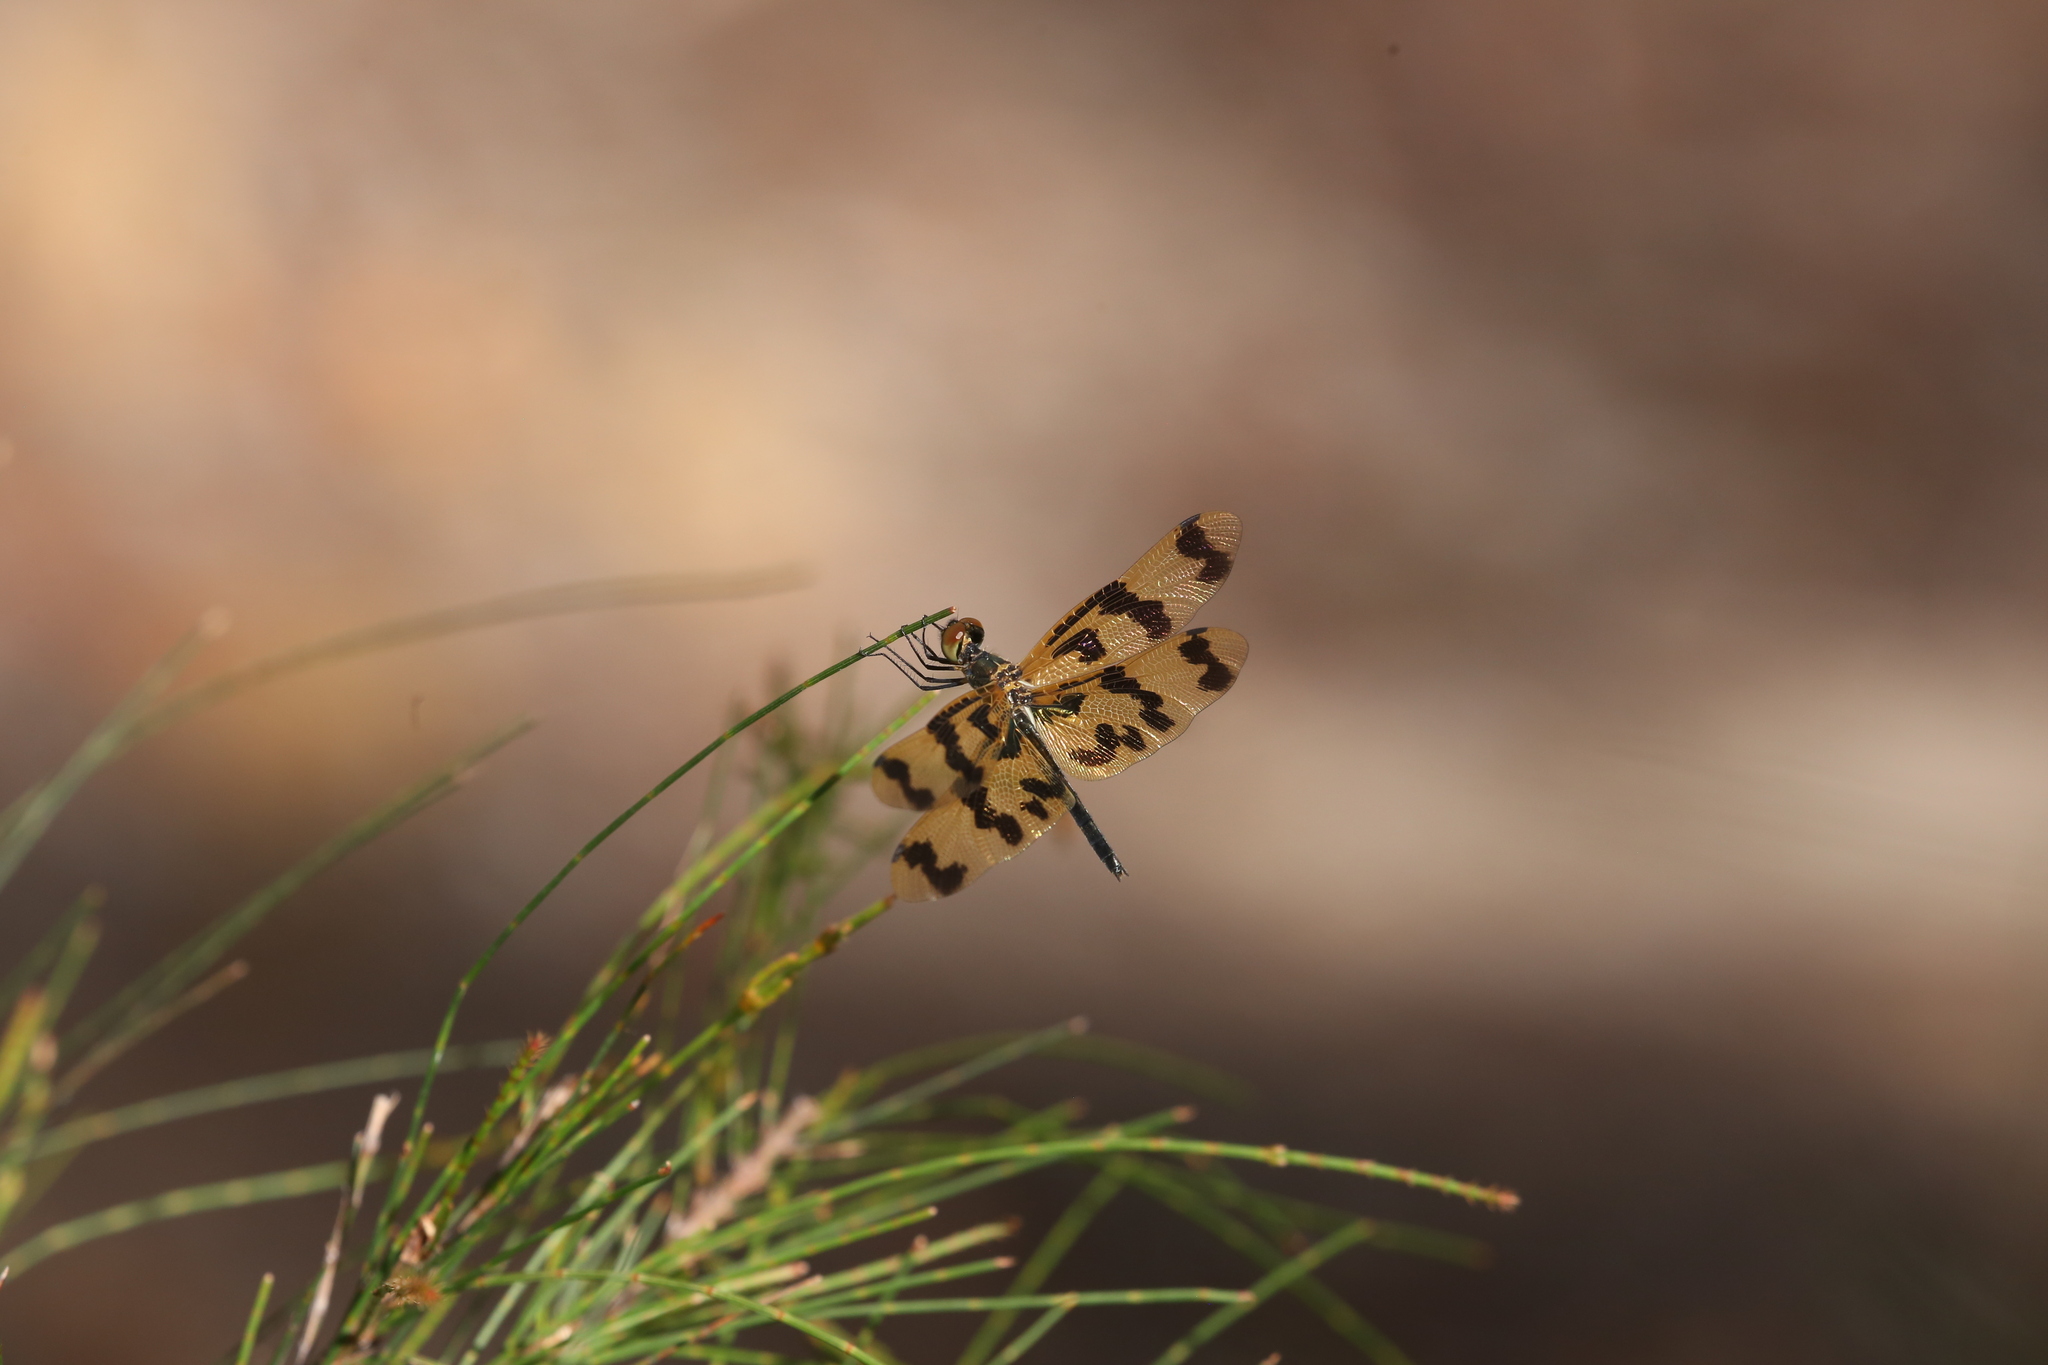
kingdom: Animalia
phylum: Arthropoda
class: Insecta
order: Odonata
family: Libellulidae
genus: Rhyothemis
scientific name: Rhyothemis graphiptera
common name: Graphic flutterer
